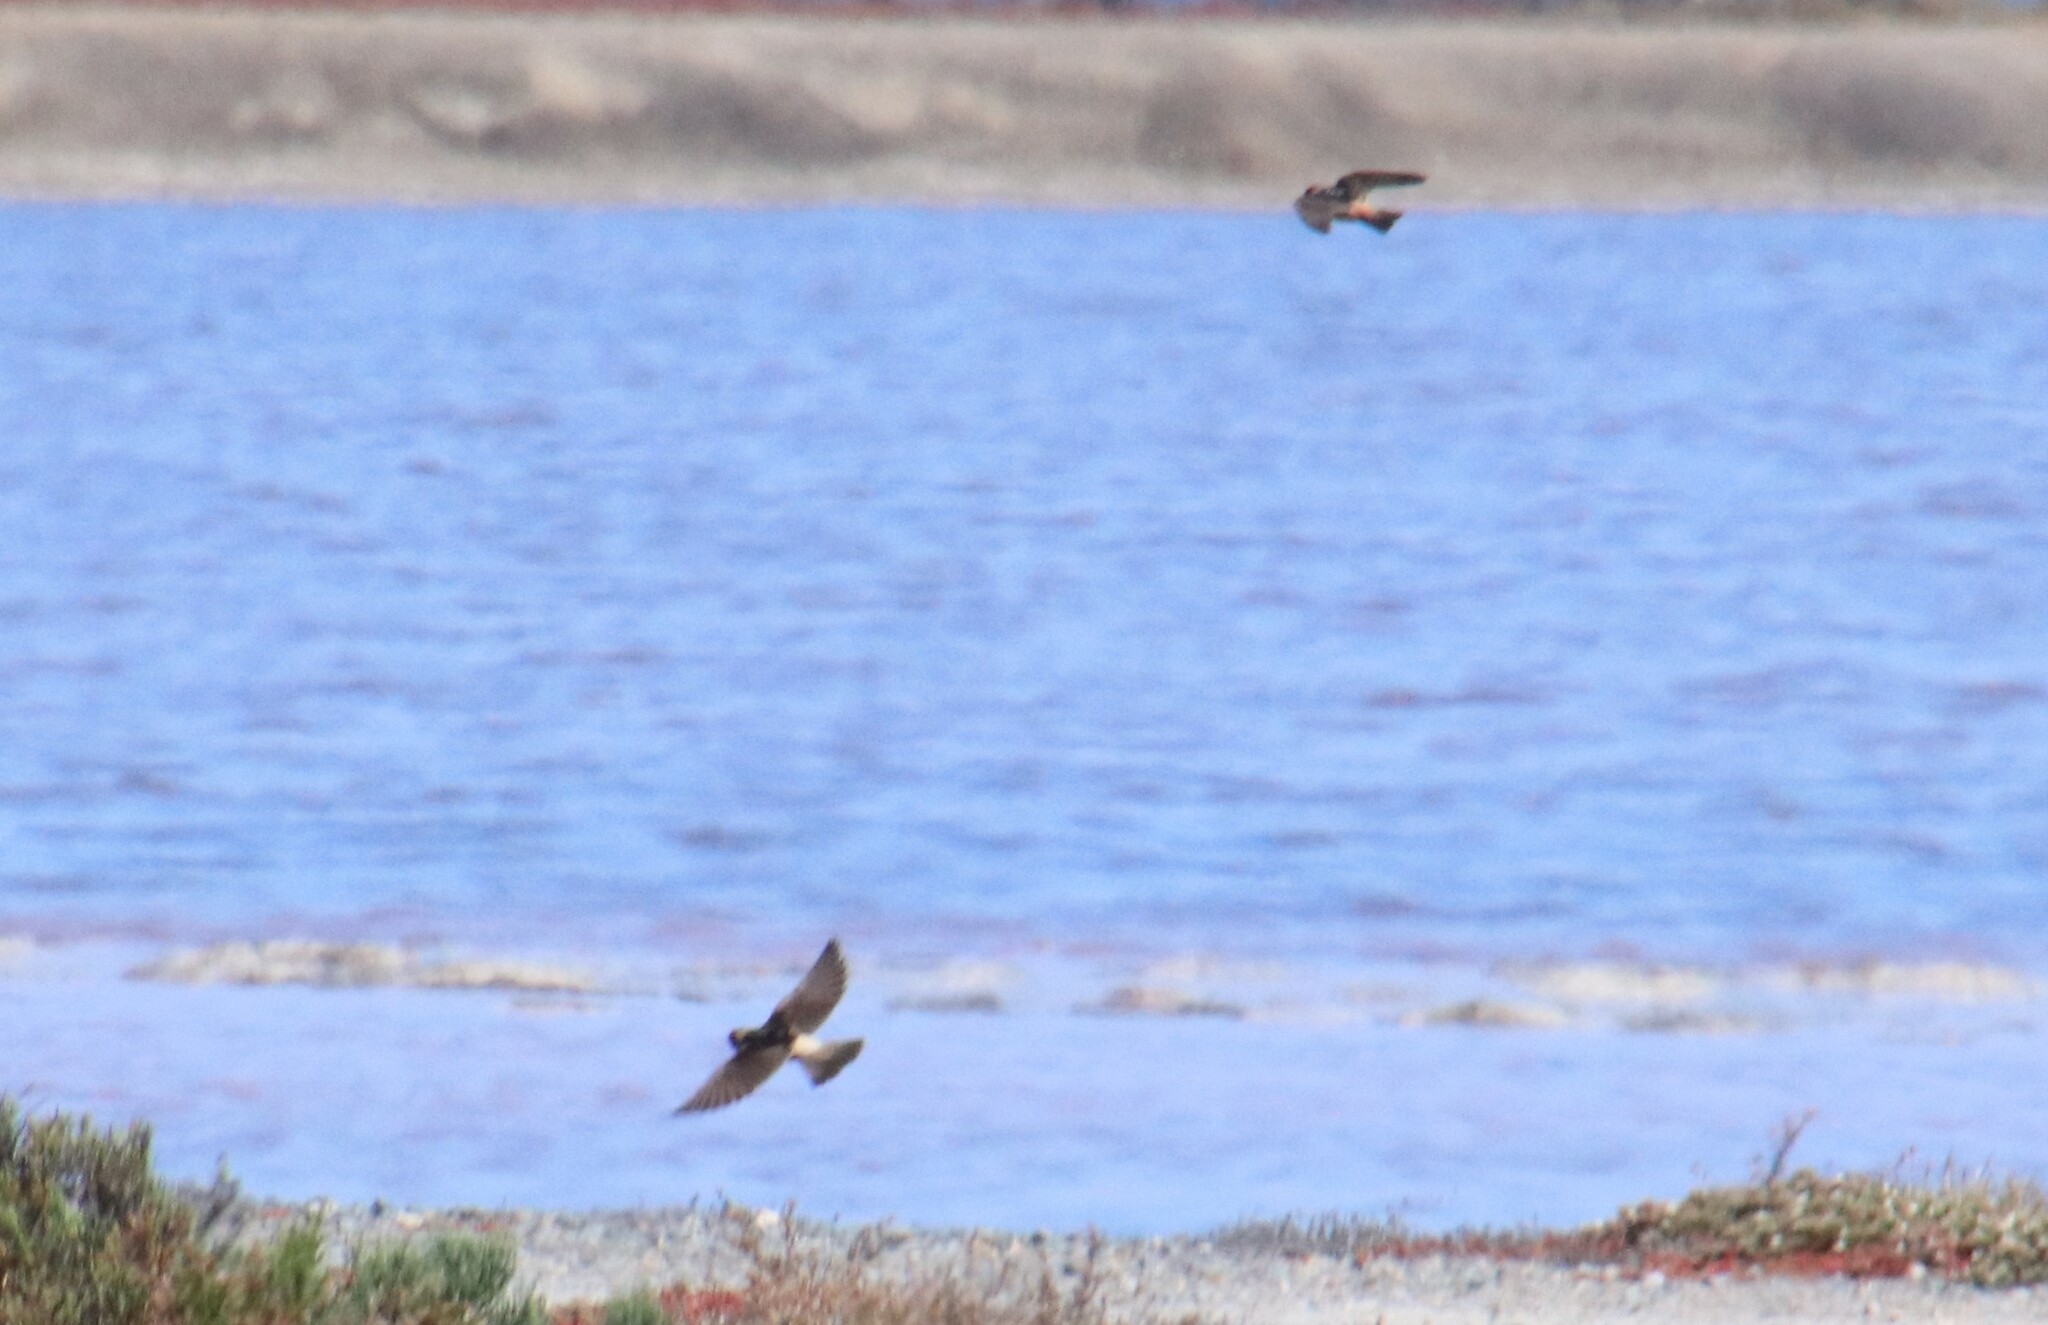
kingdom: Animalia
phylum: Chordata
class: Aves
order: Passeriformes
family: Hirundinidae
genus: Petrochelidon
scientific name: Petrochelidon pyrrhonota
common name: American cliff swallow
